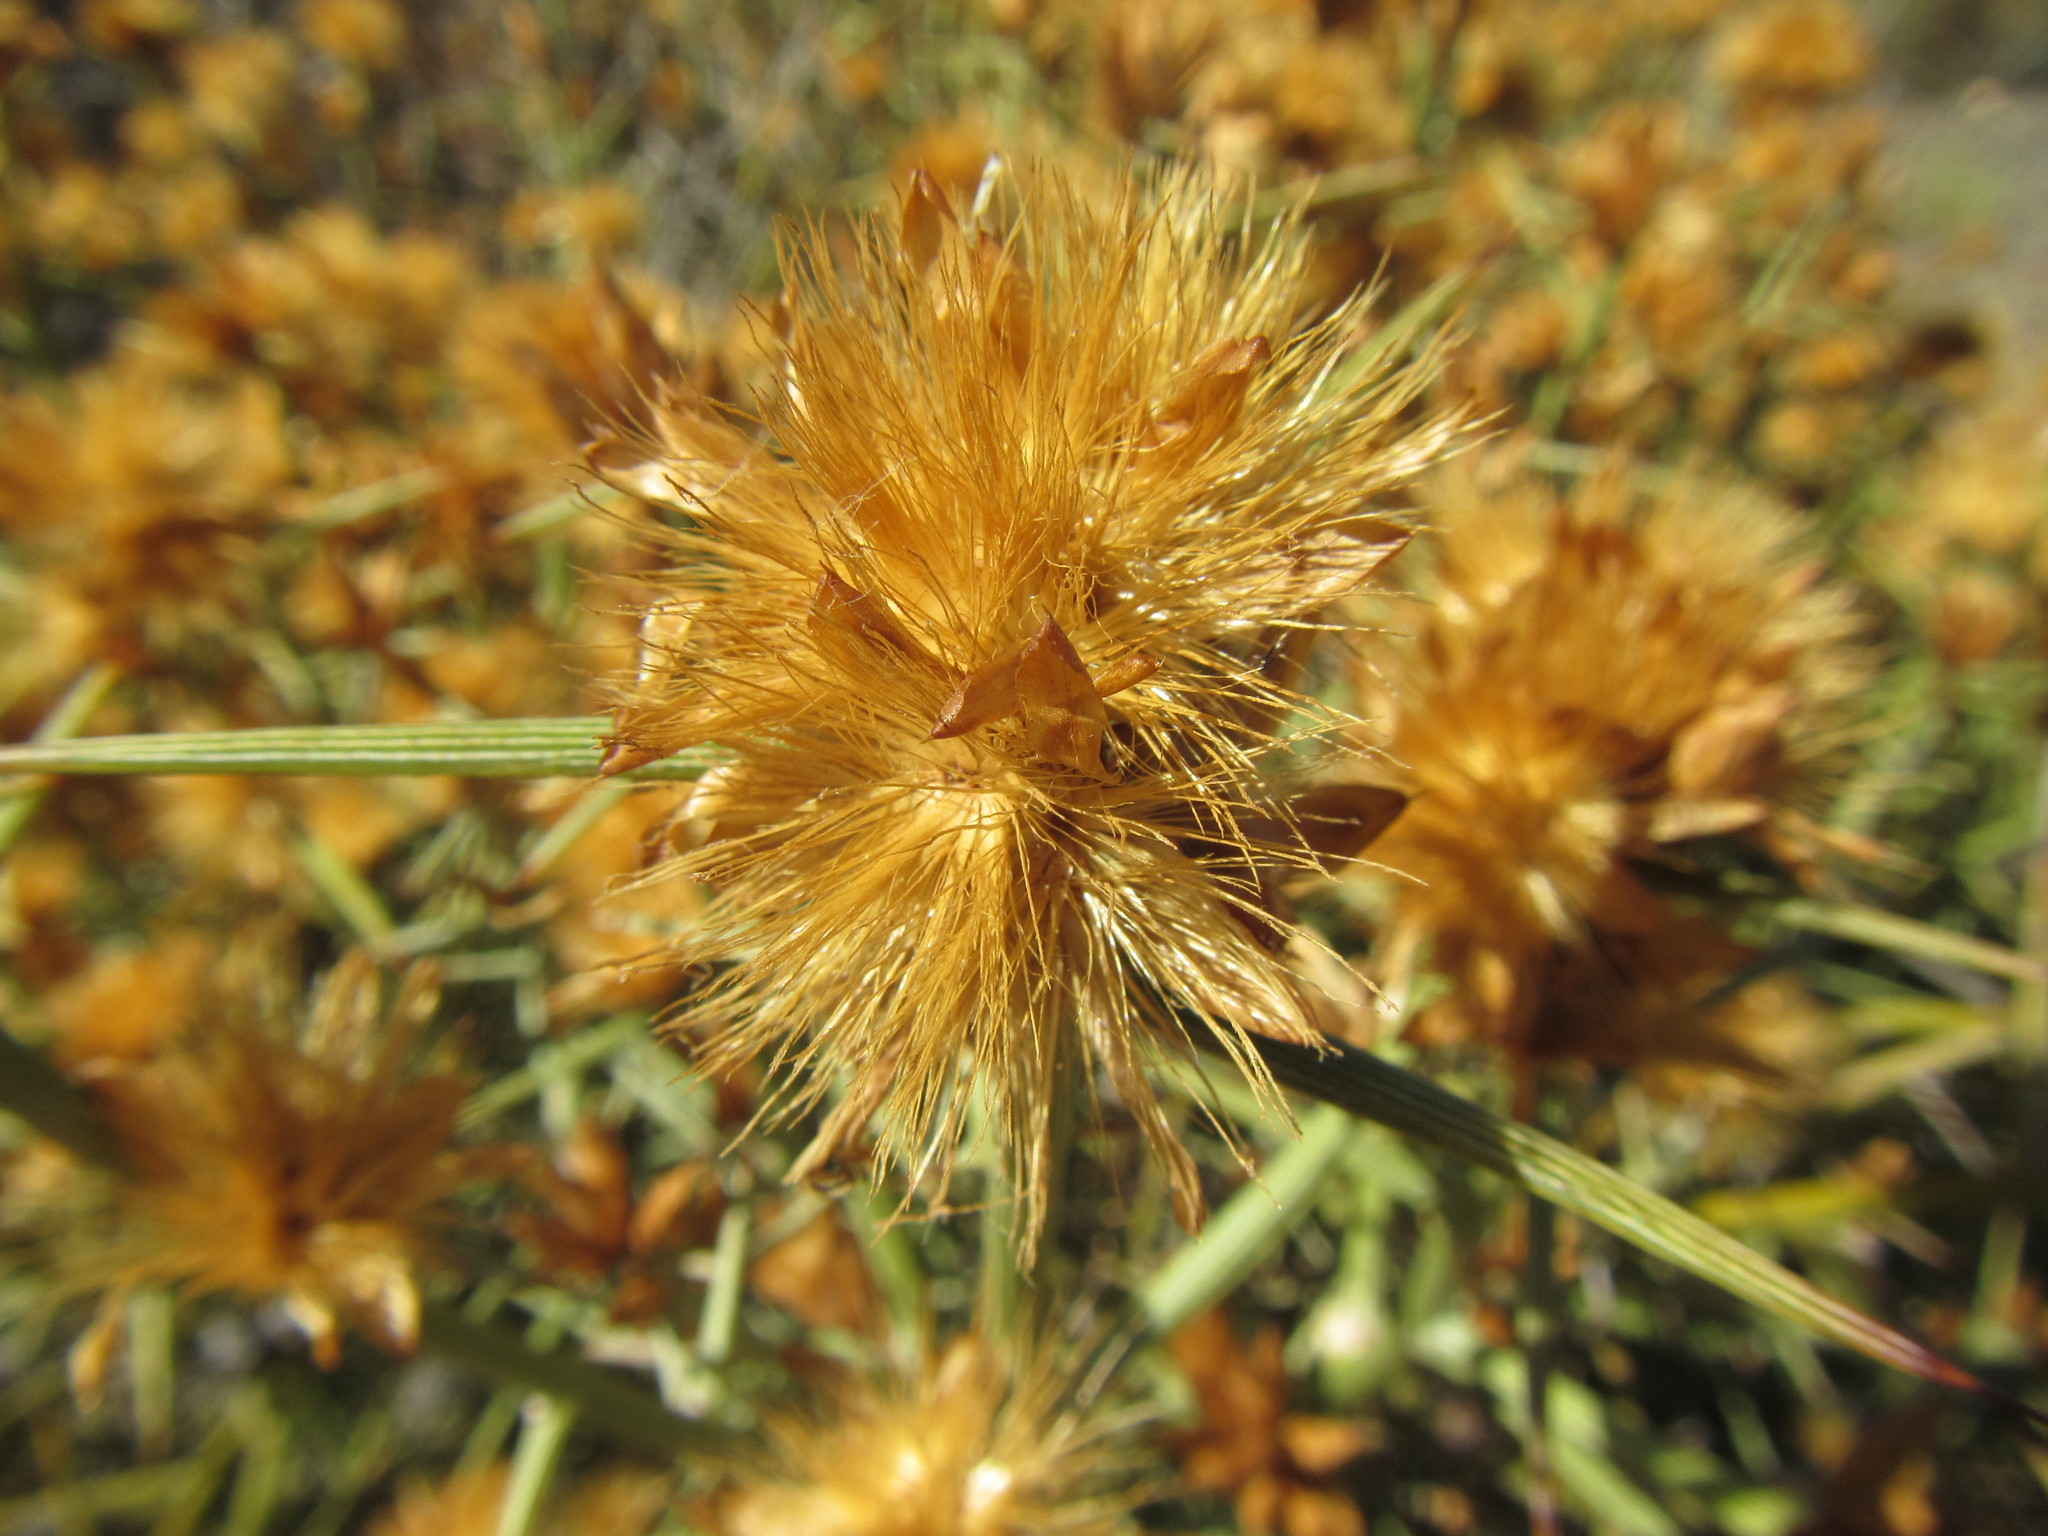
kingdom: Plantae
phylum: Tracheophyta
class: Magnoliopsida
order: Asterales
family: Asteraceae
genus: Hoplophyllum
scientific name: Hoplophyllum spinosum
